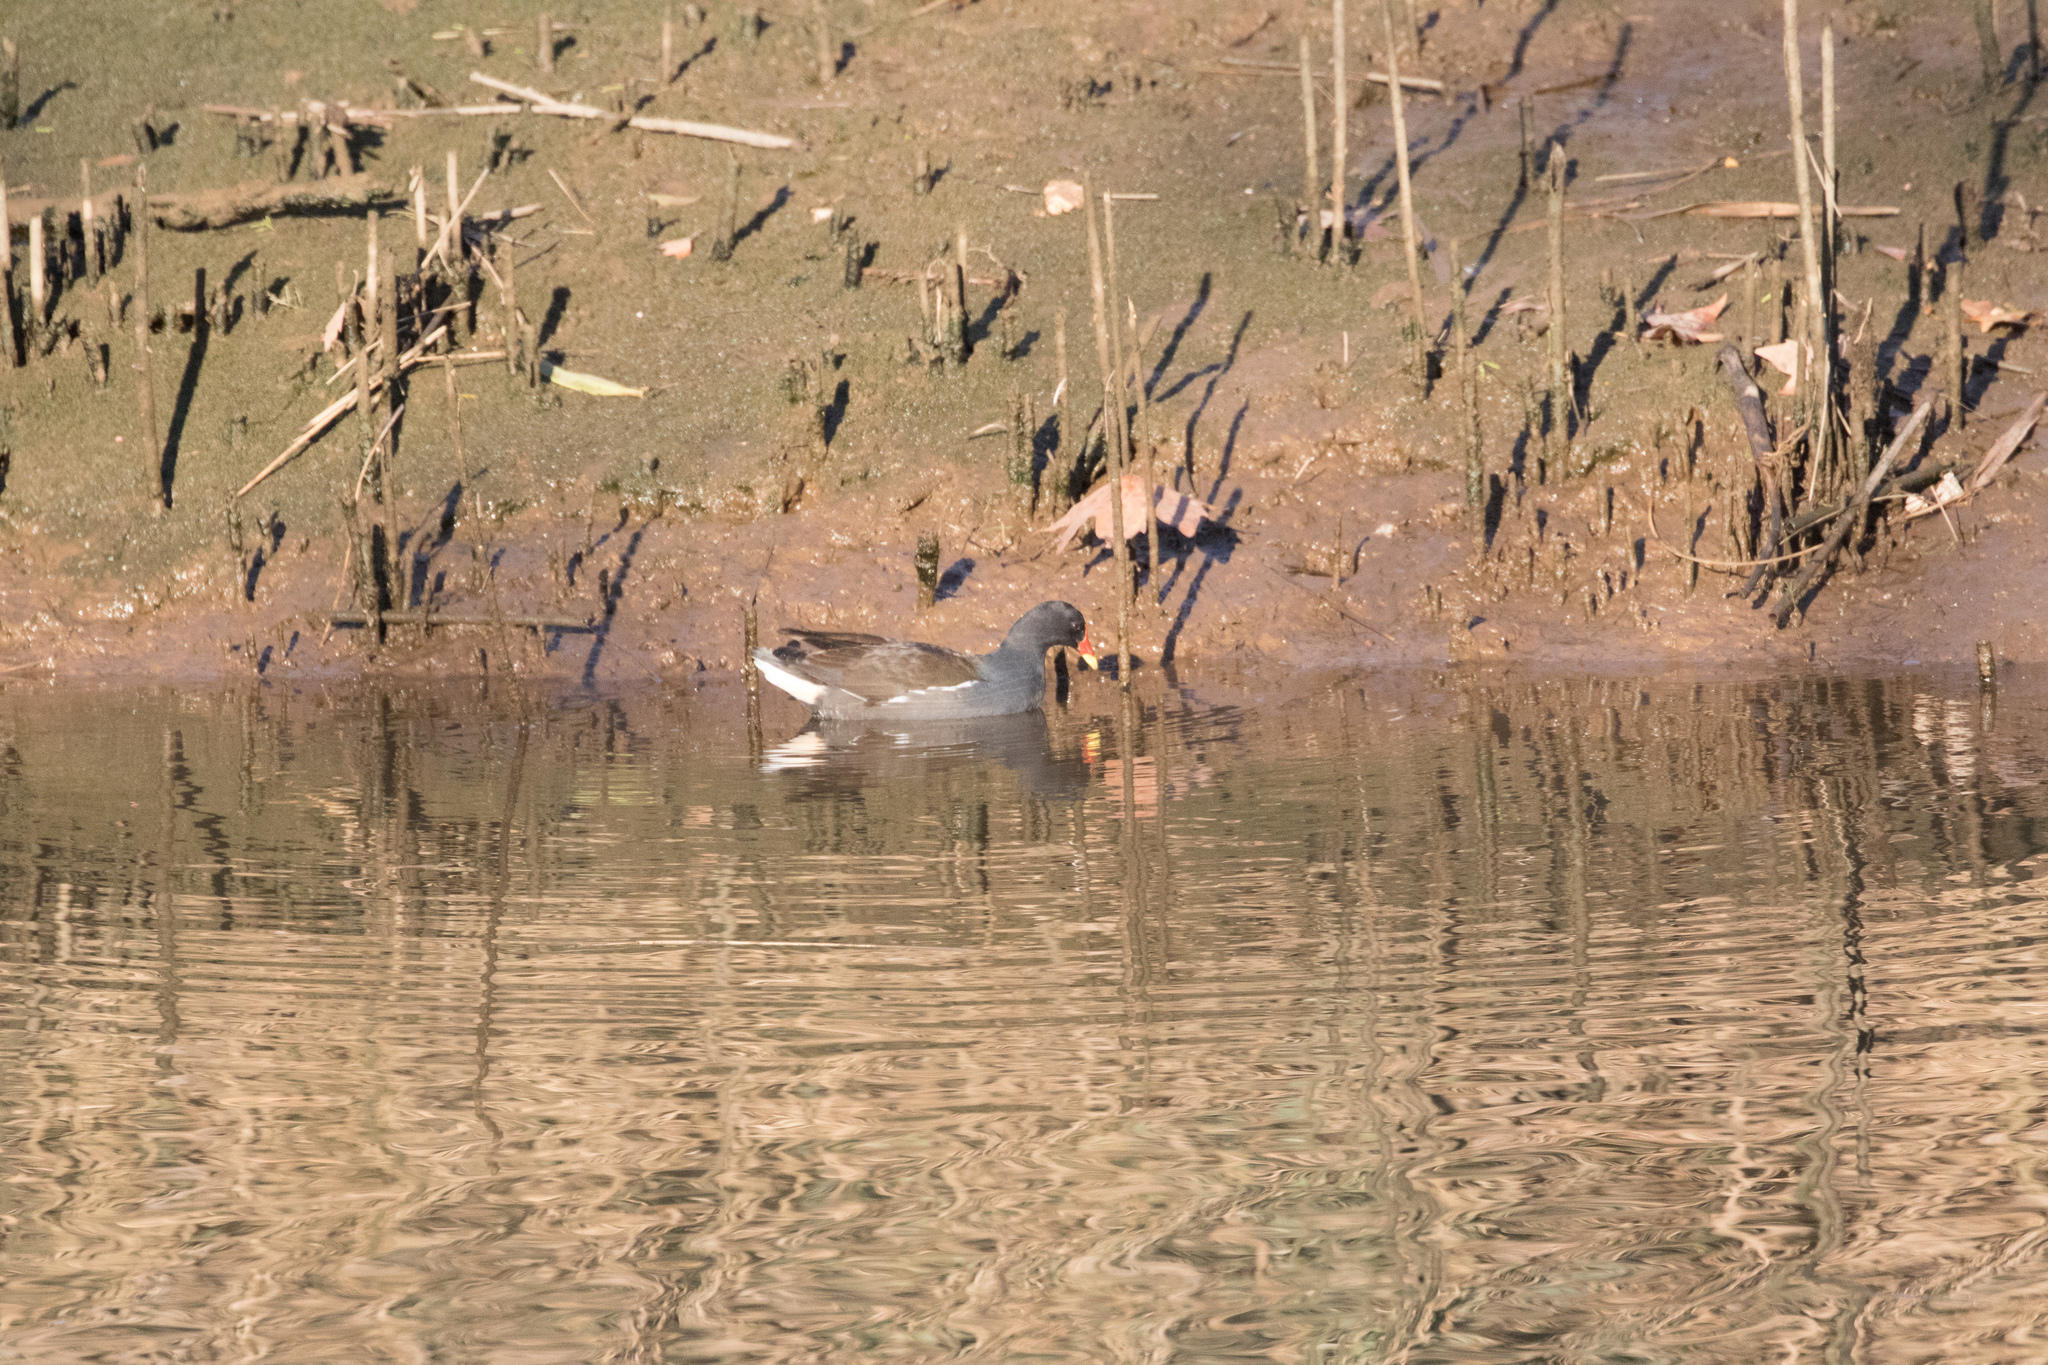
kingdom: Animalia
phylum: Chordata
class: Aves
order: Gruiformes
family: Rallidae
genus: Gallinula
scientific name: Gallinula chloropus
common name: Common moorhen
